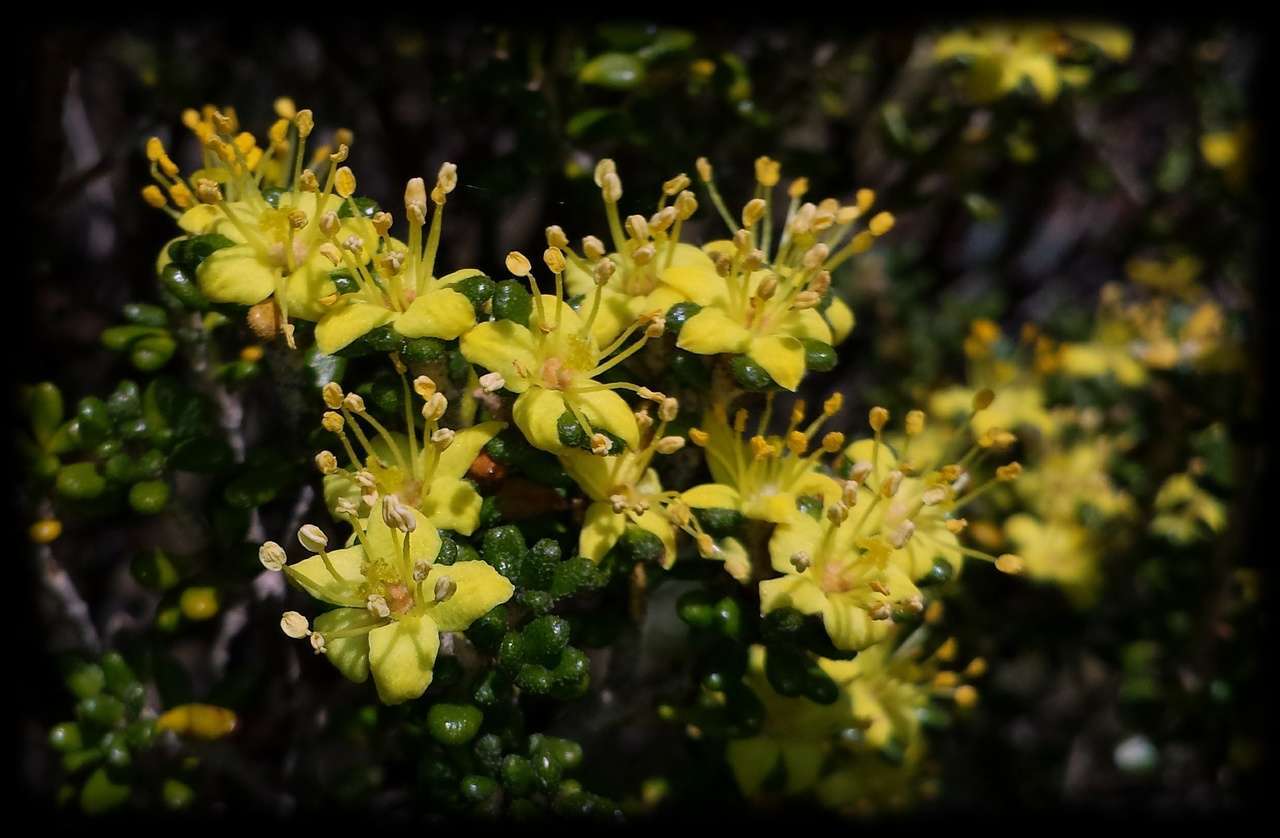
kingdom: Plantae
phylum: Tracheophyta
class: Magnoliopsida
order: Sapindales
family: Rutaceae
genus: Asterolasia
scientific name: Asterolasia trymalioides
